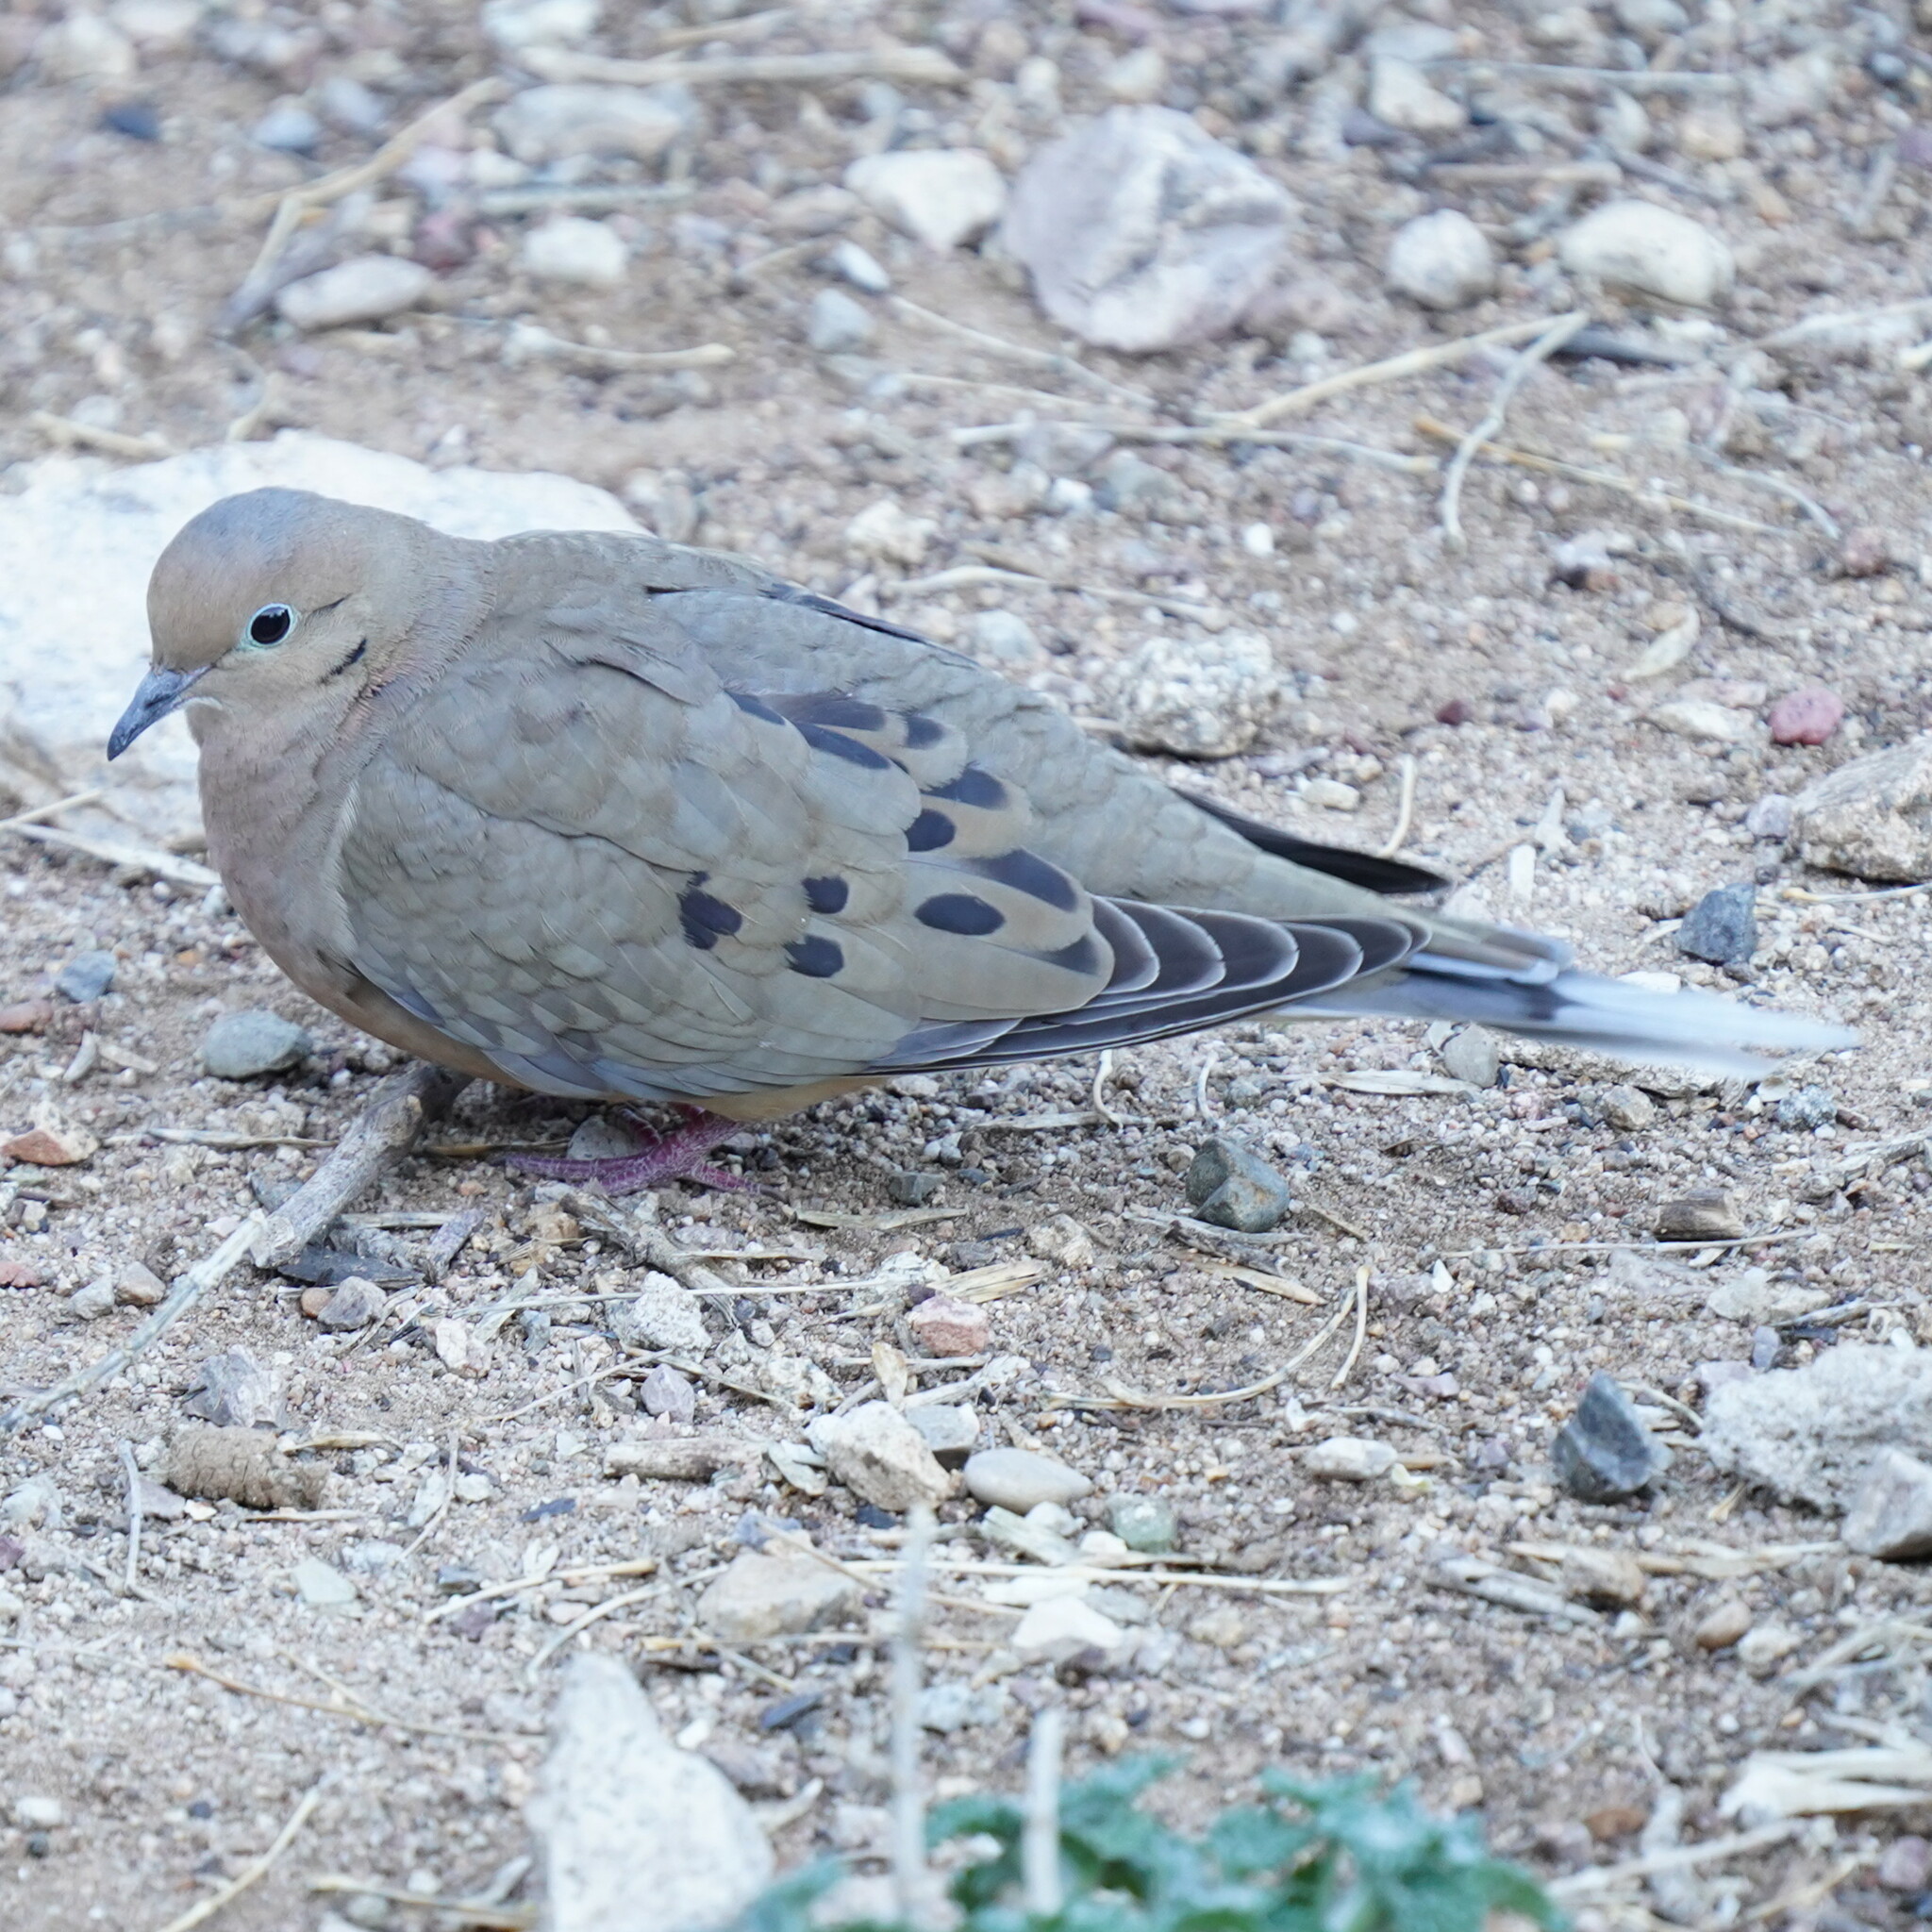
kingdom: Animalia
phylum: Chordata
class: Aves
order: Columbiformes
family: Columbidae
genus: Zenaida
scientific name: Zenaida macroura
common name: Mourning dove
